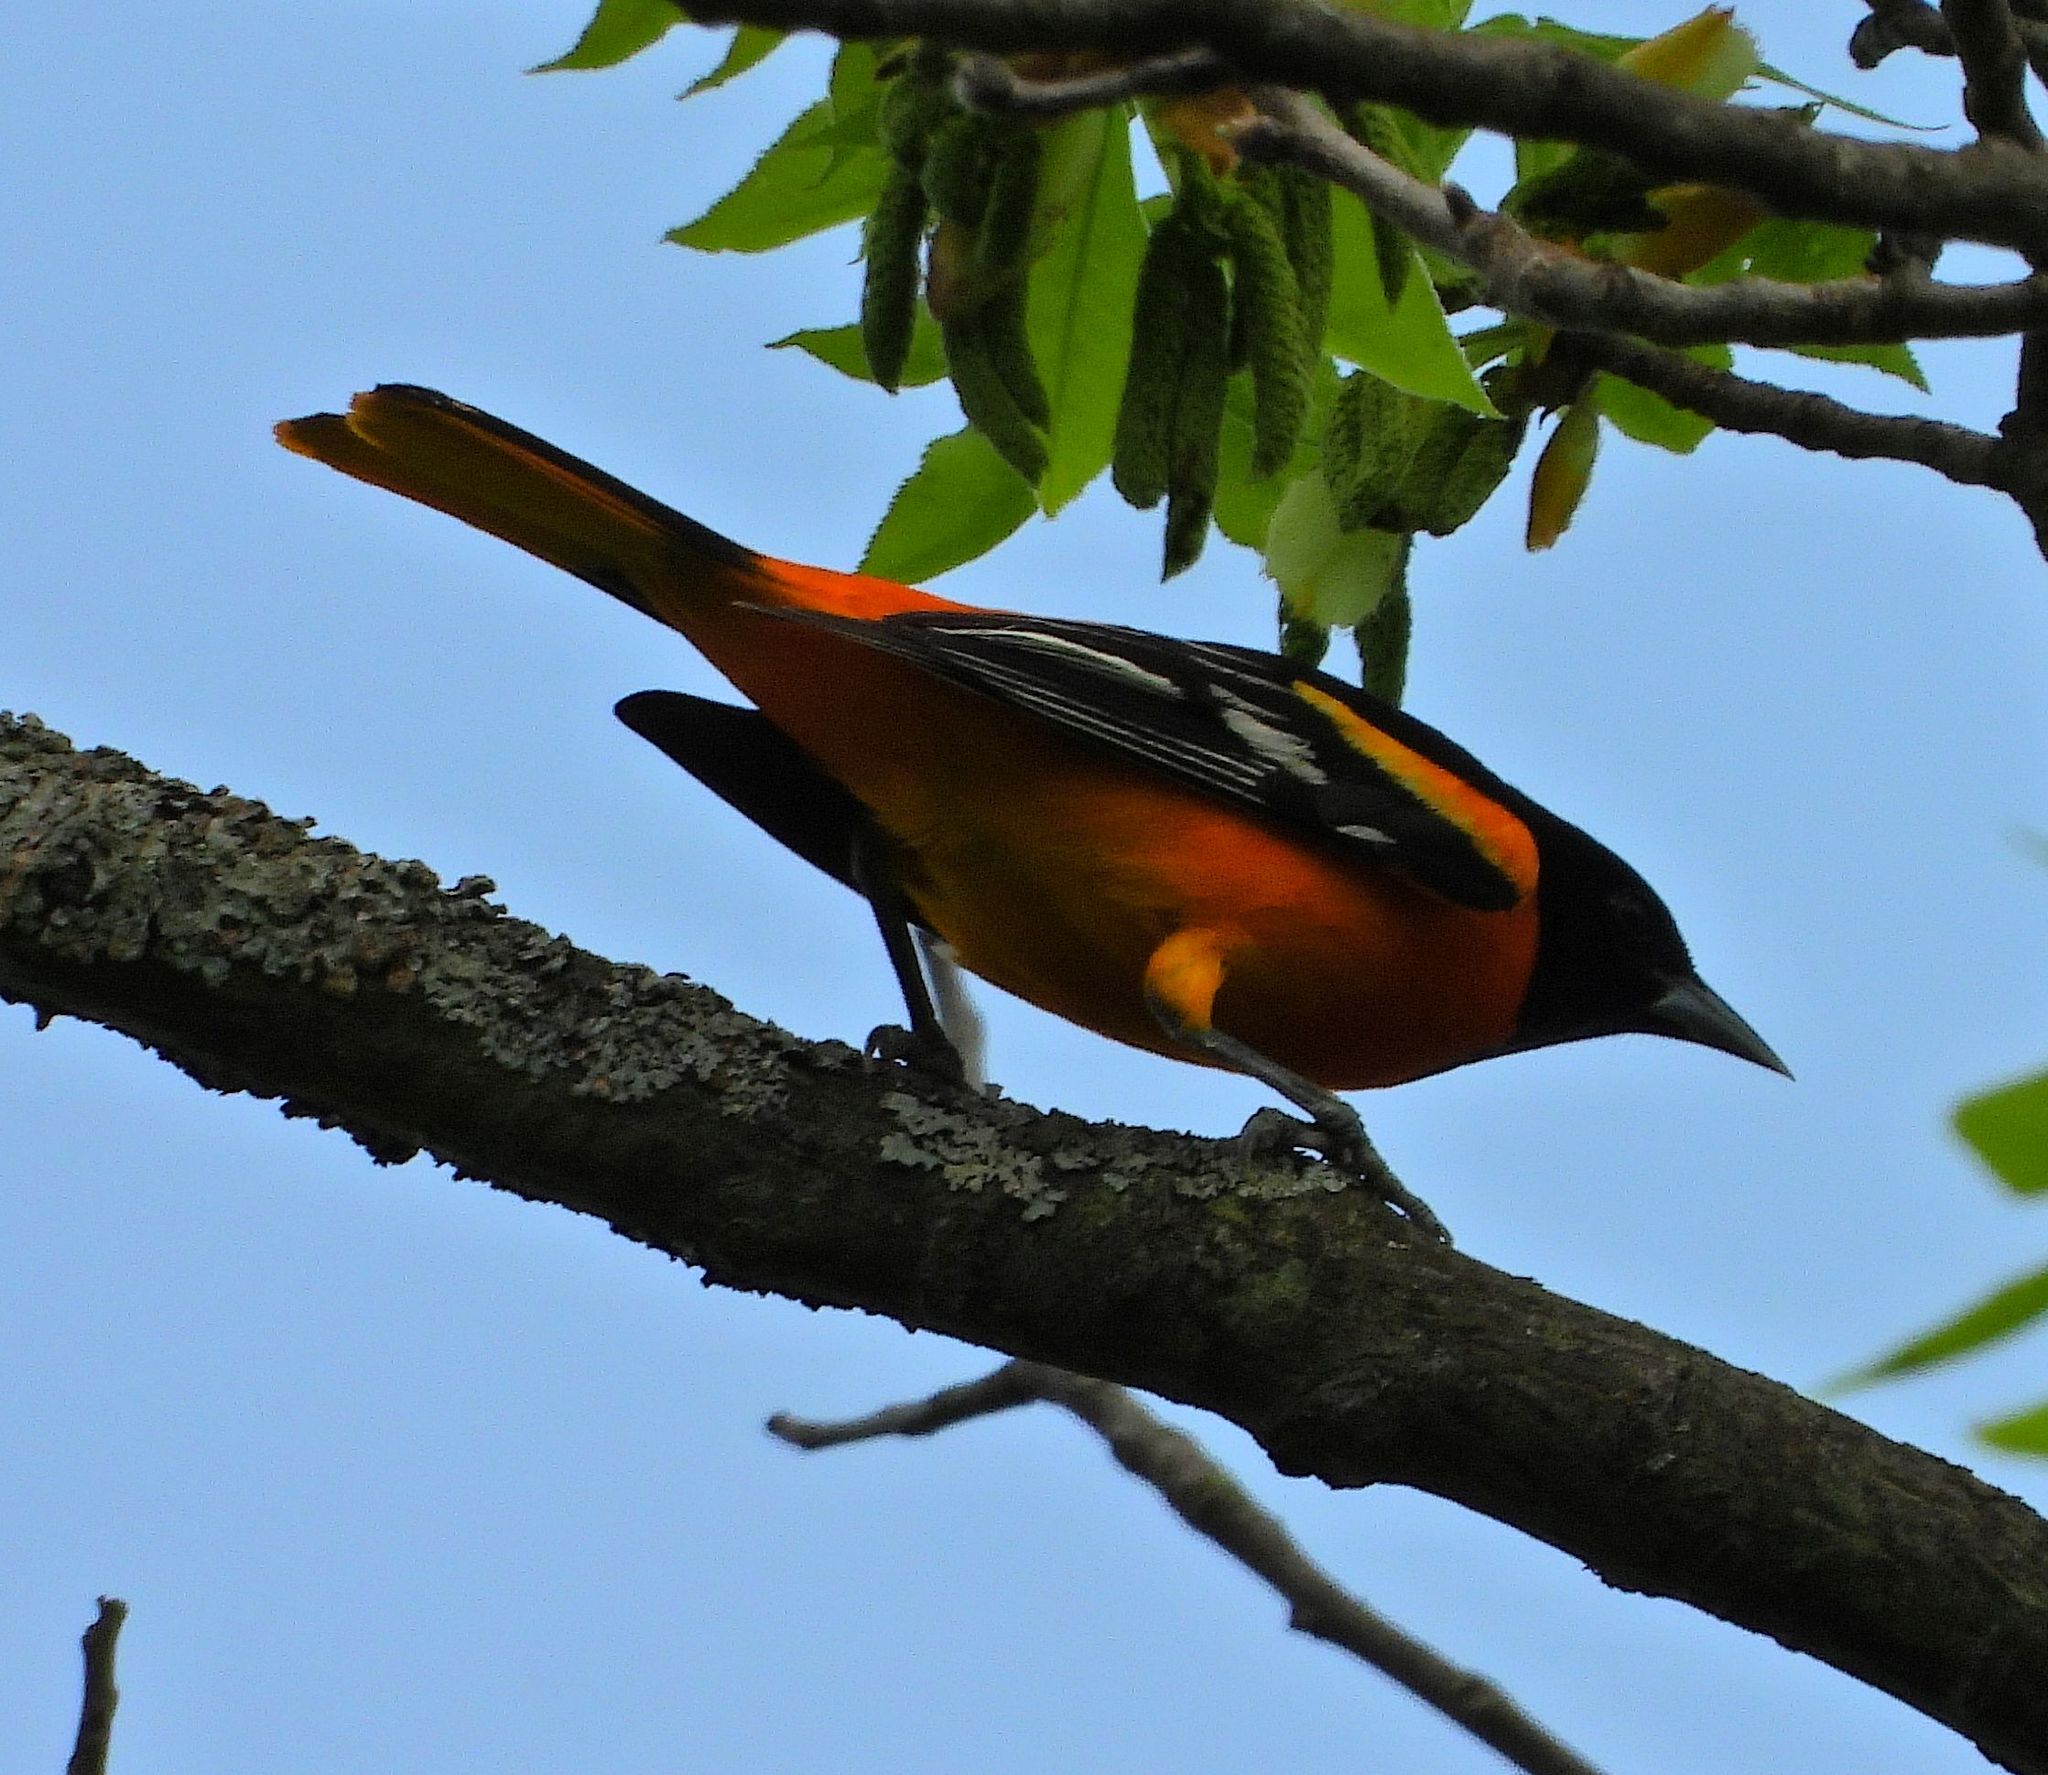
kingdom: Animalia
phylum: Chordata
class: Aves
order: Passeriformes
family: Icteridae
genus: Icterus
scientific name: Icterus galbula
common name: Baltimore oriole
